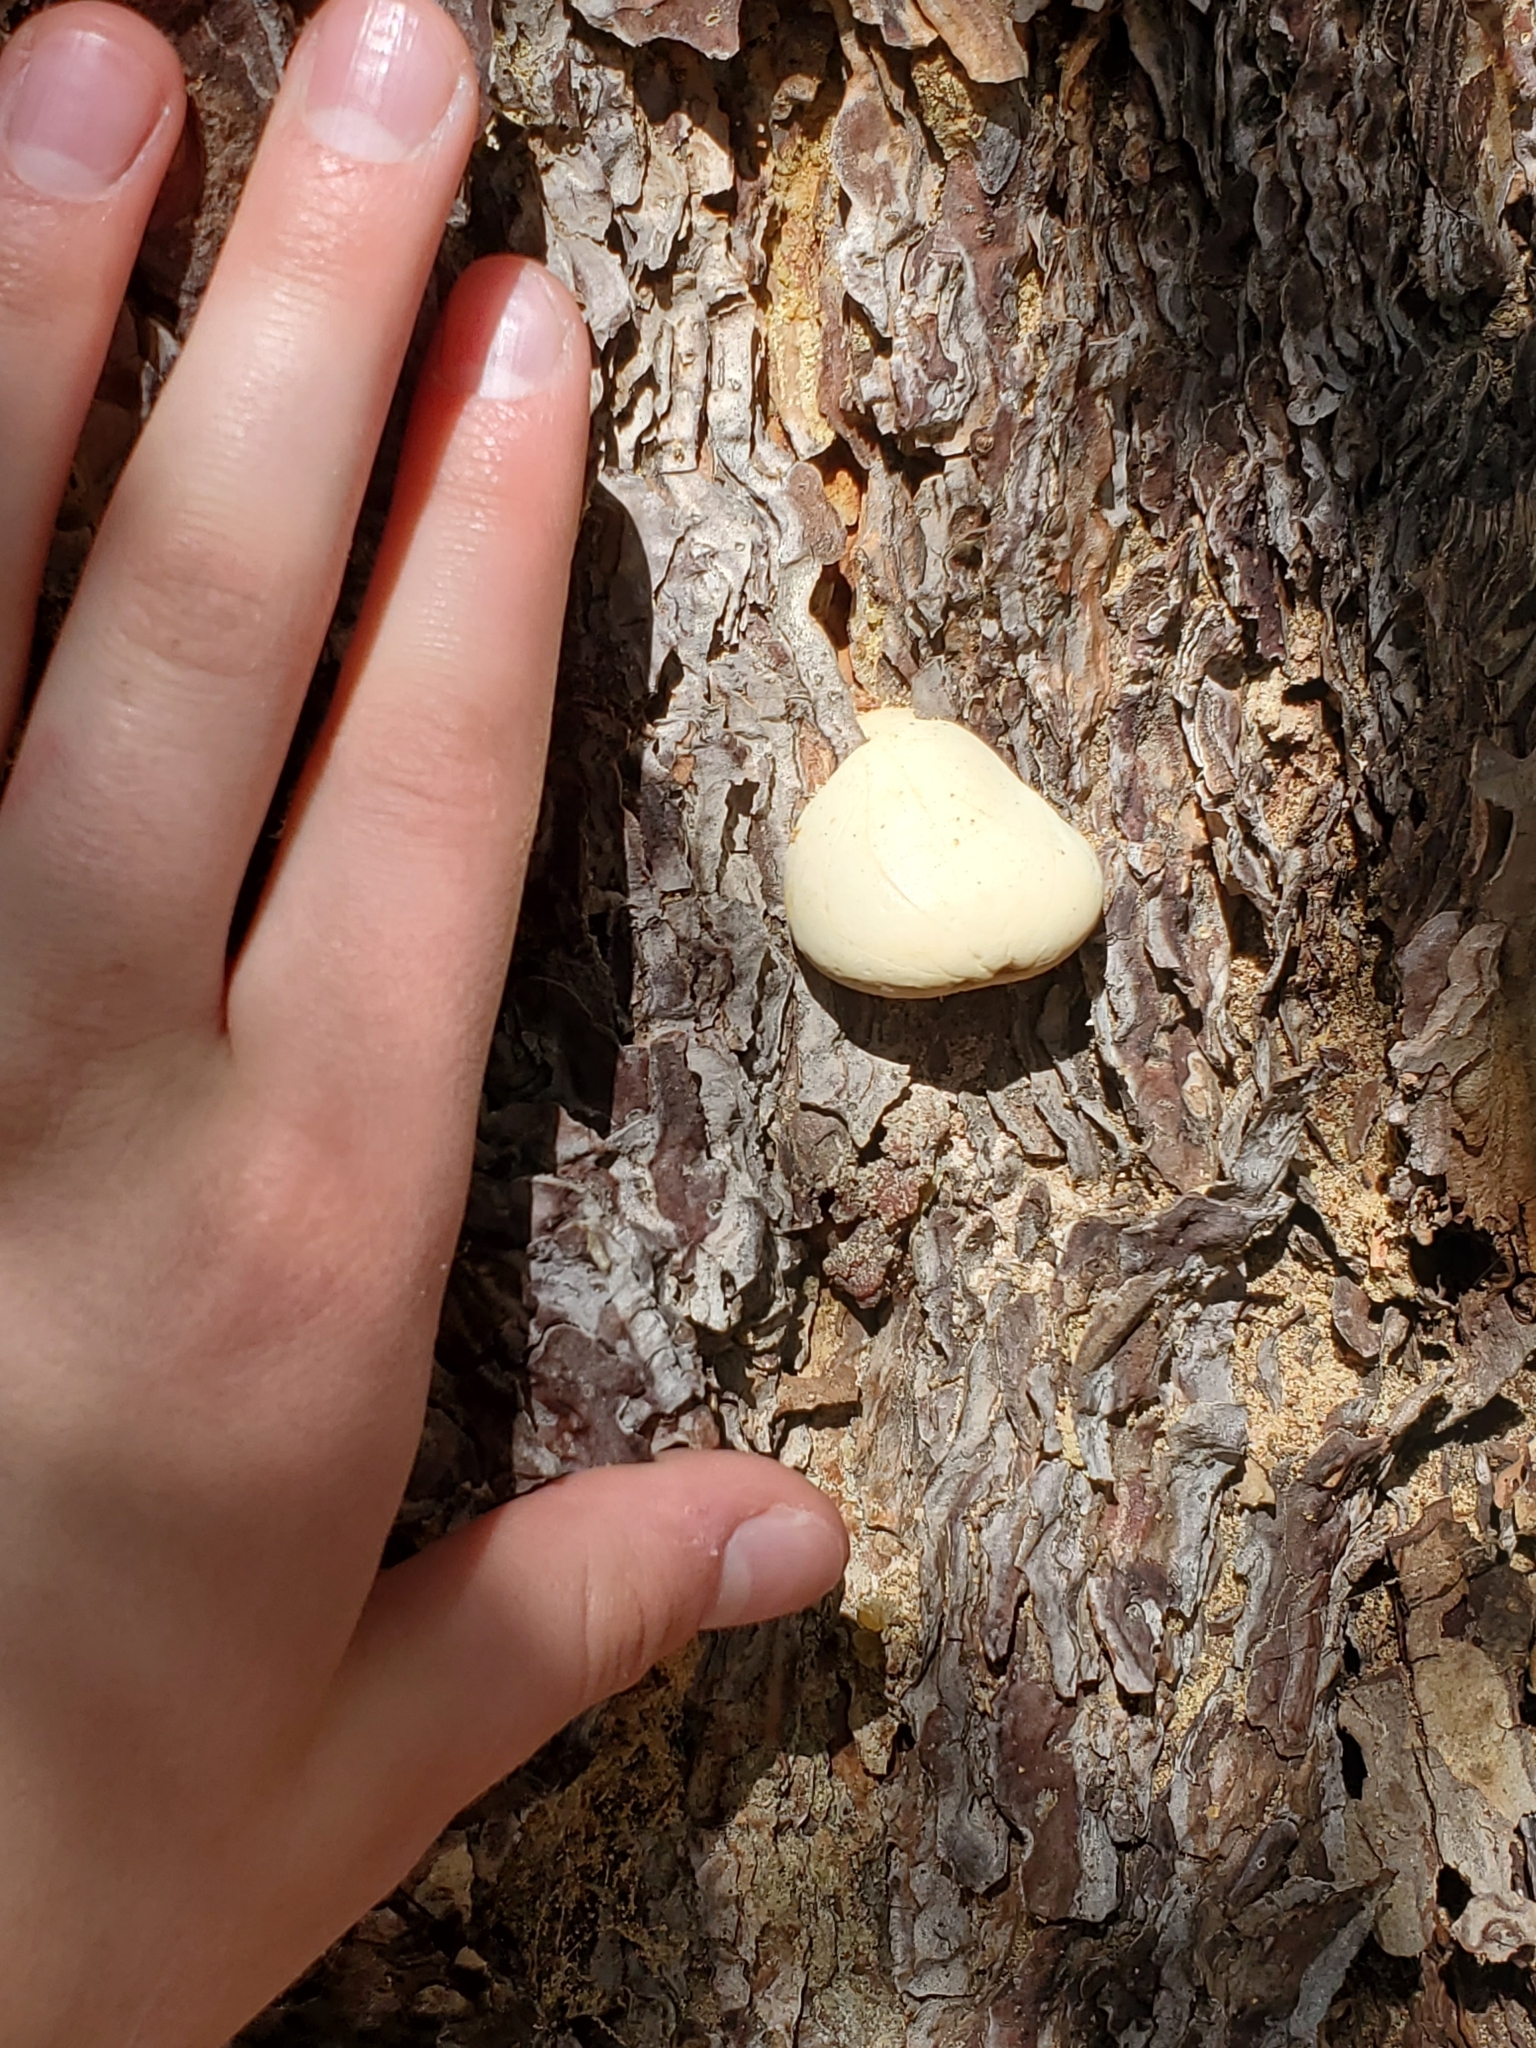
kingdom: Fungi
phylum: Basidiomycota
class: Agaricomycetes
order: Polyporales
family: Polyporaceae
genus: Cryptoporus
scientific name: Cryptoporus volvatus
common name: Veiled polypore
